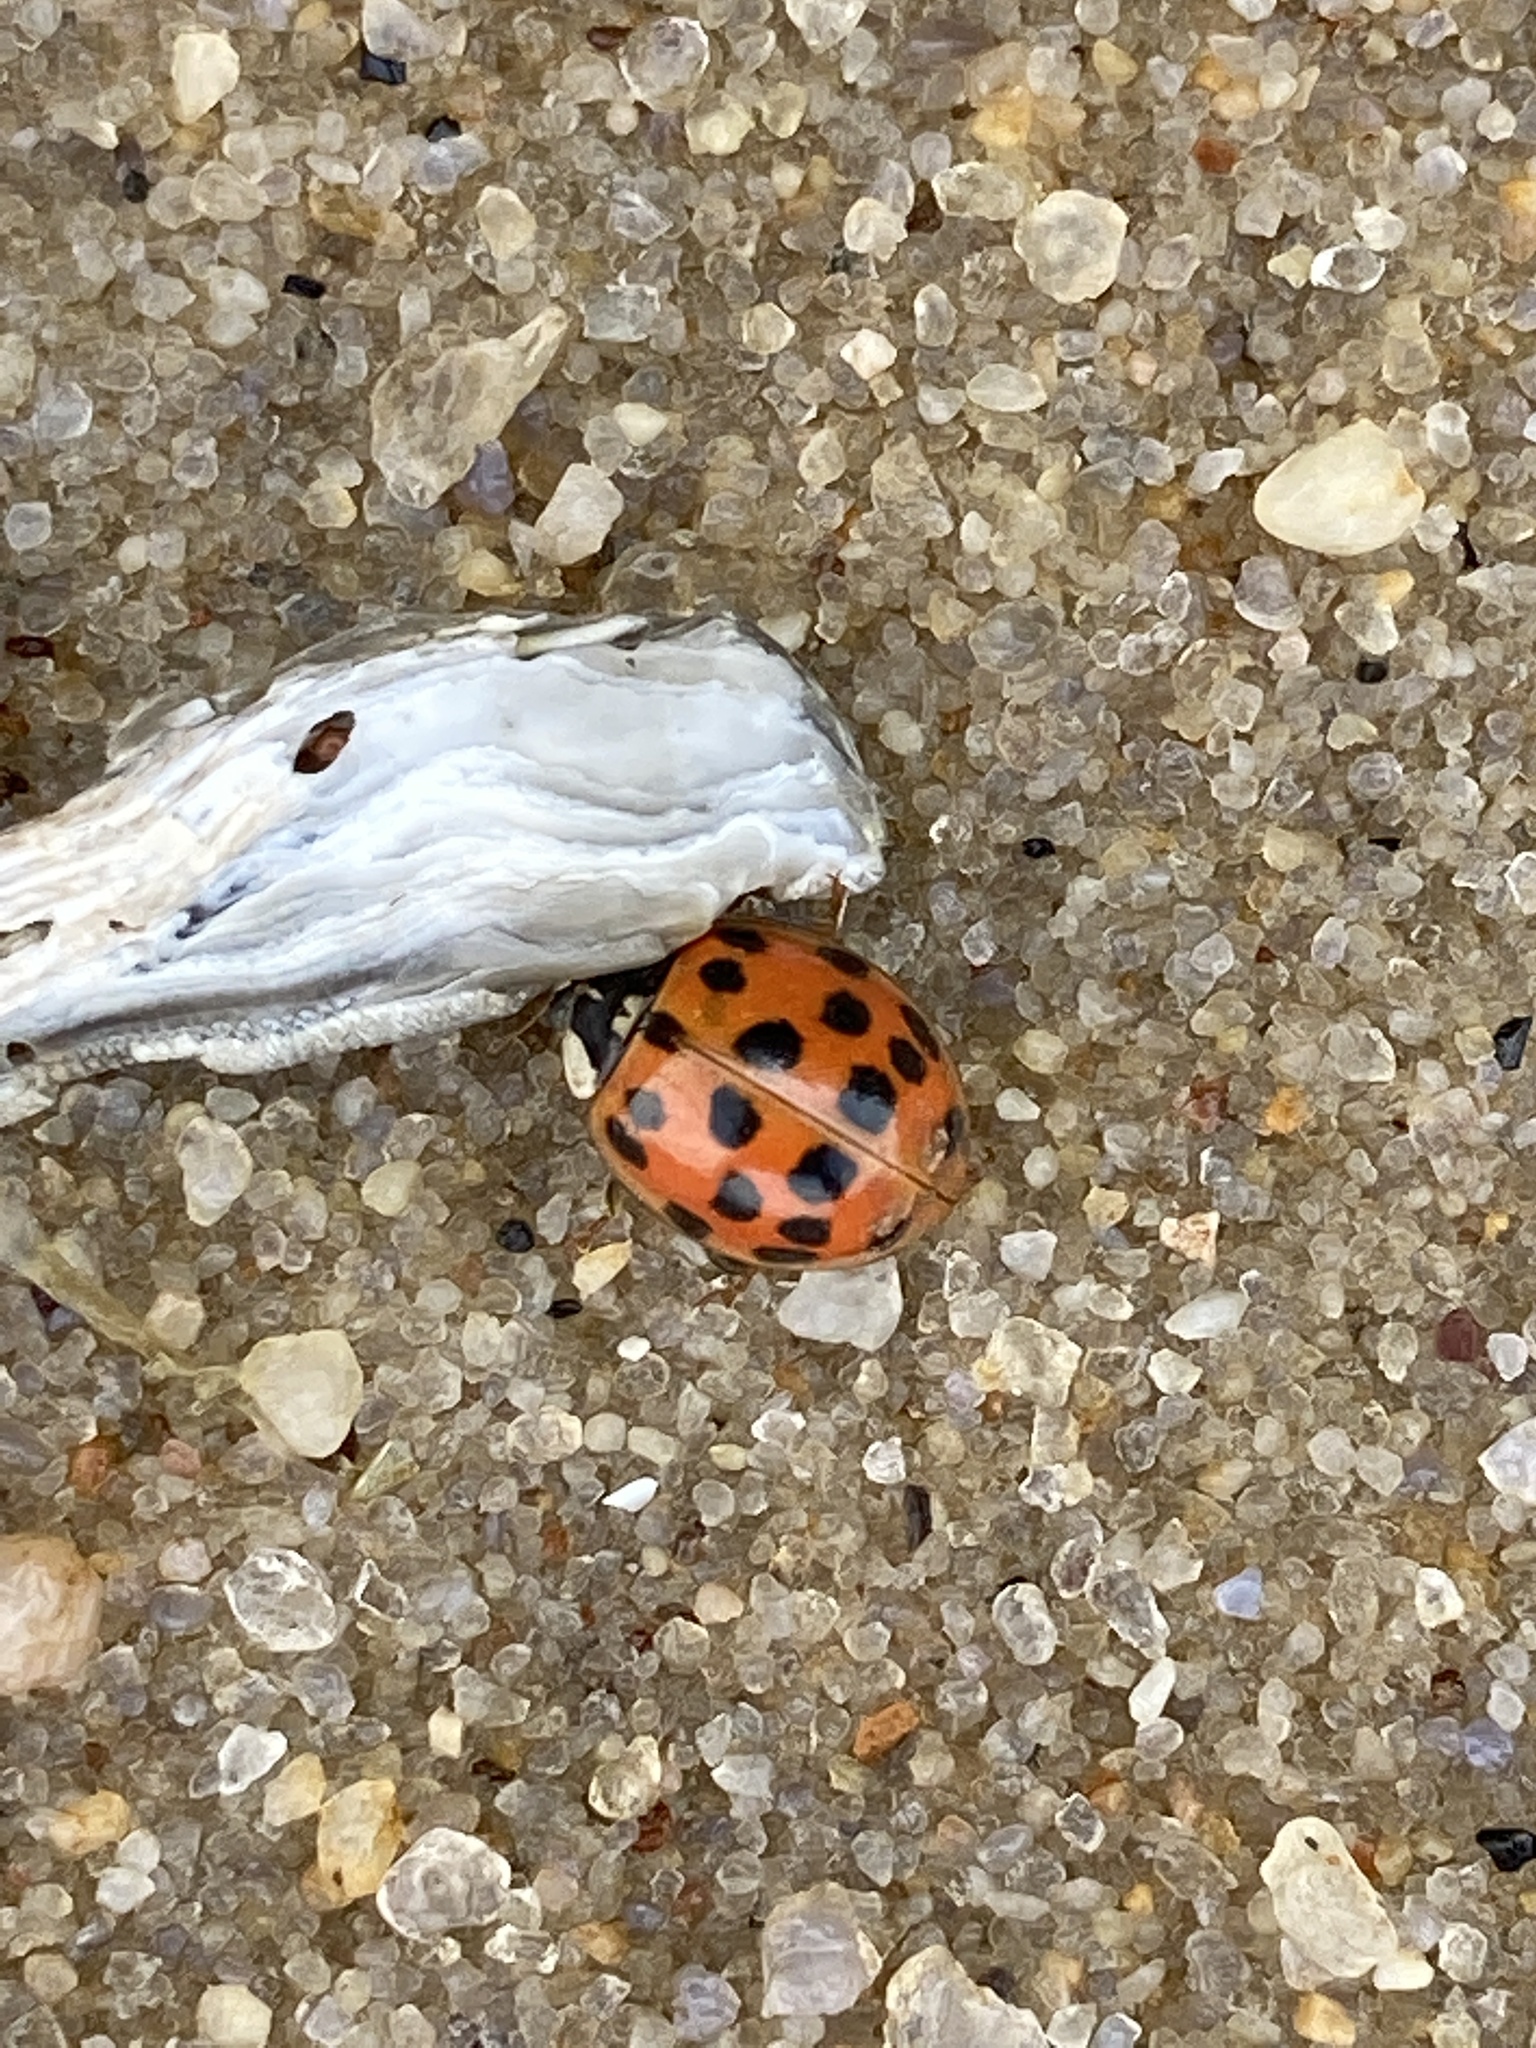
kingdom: Animalia
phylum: Arthropoda
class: Insecta
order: Coleoptera
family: Coccinellidae
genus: Harmonia
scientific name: Harmonia axyridis
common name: Harlequin ladybird
